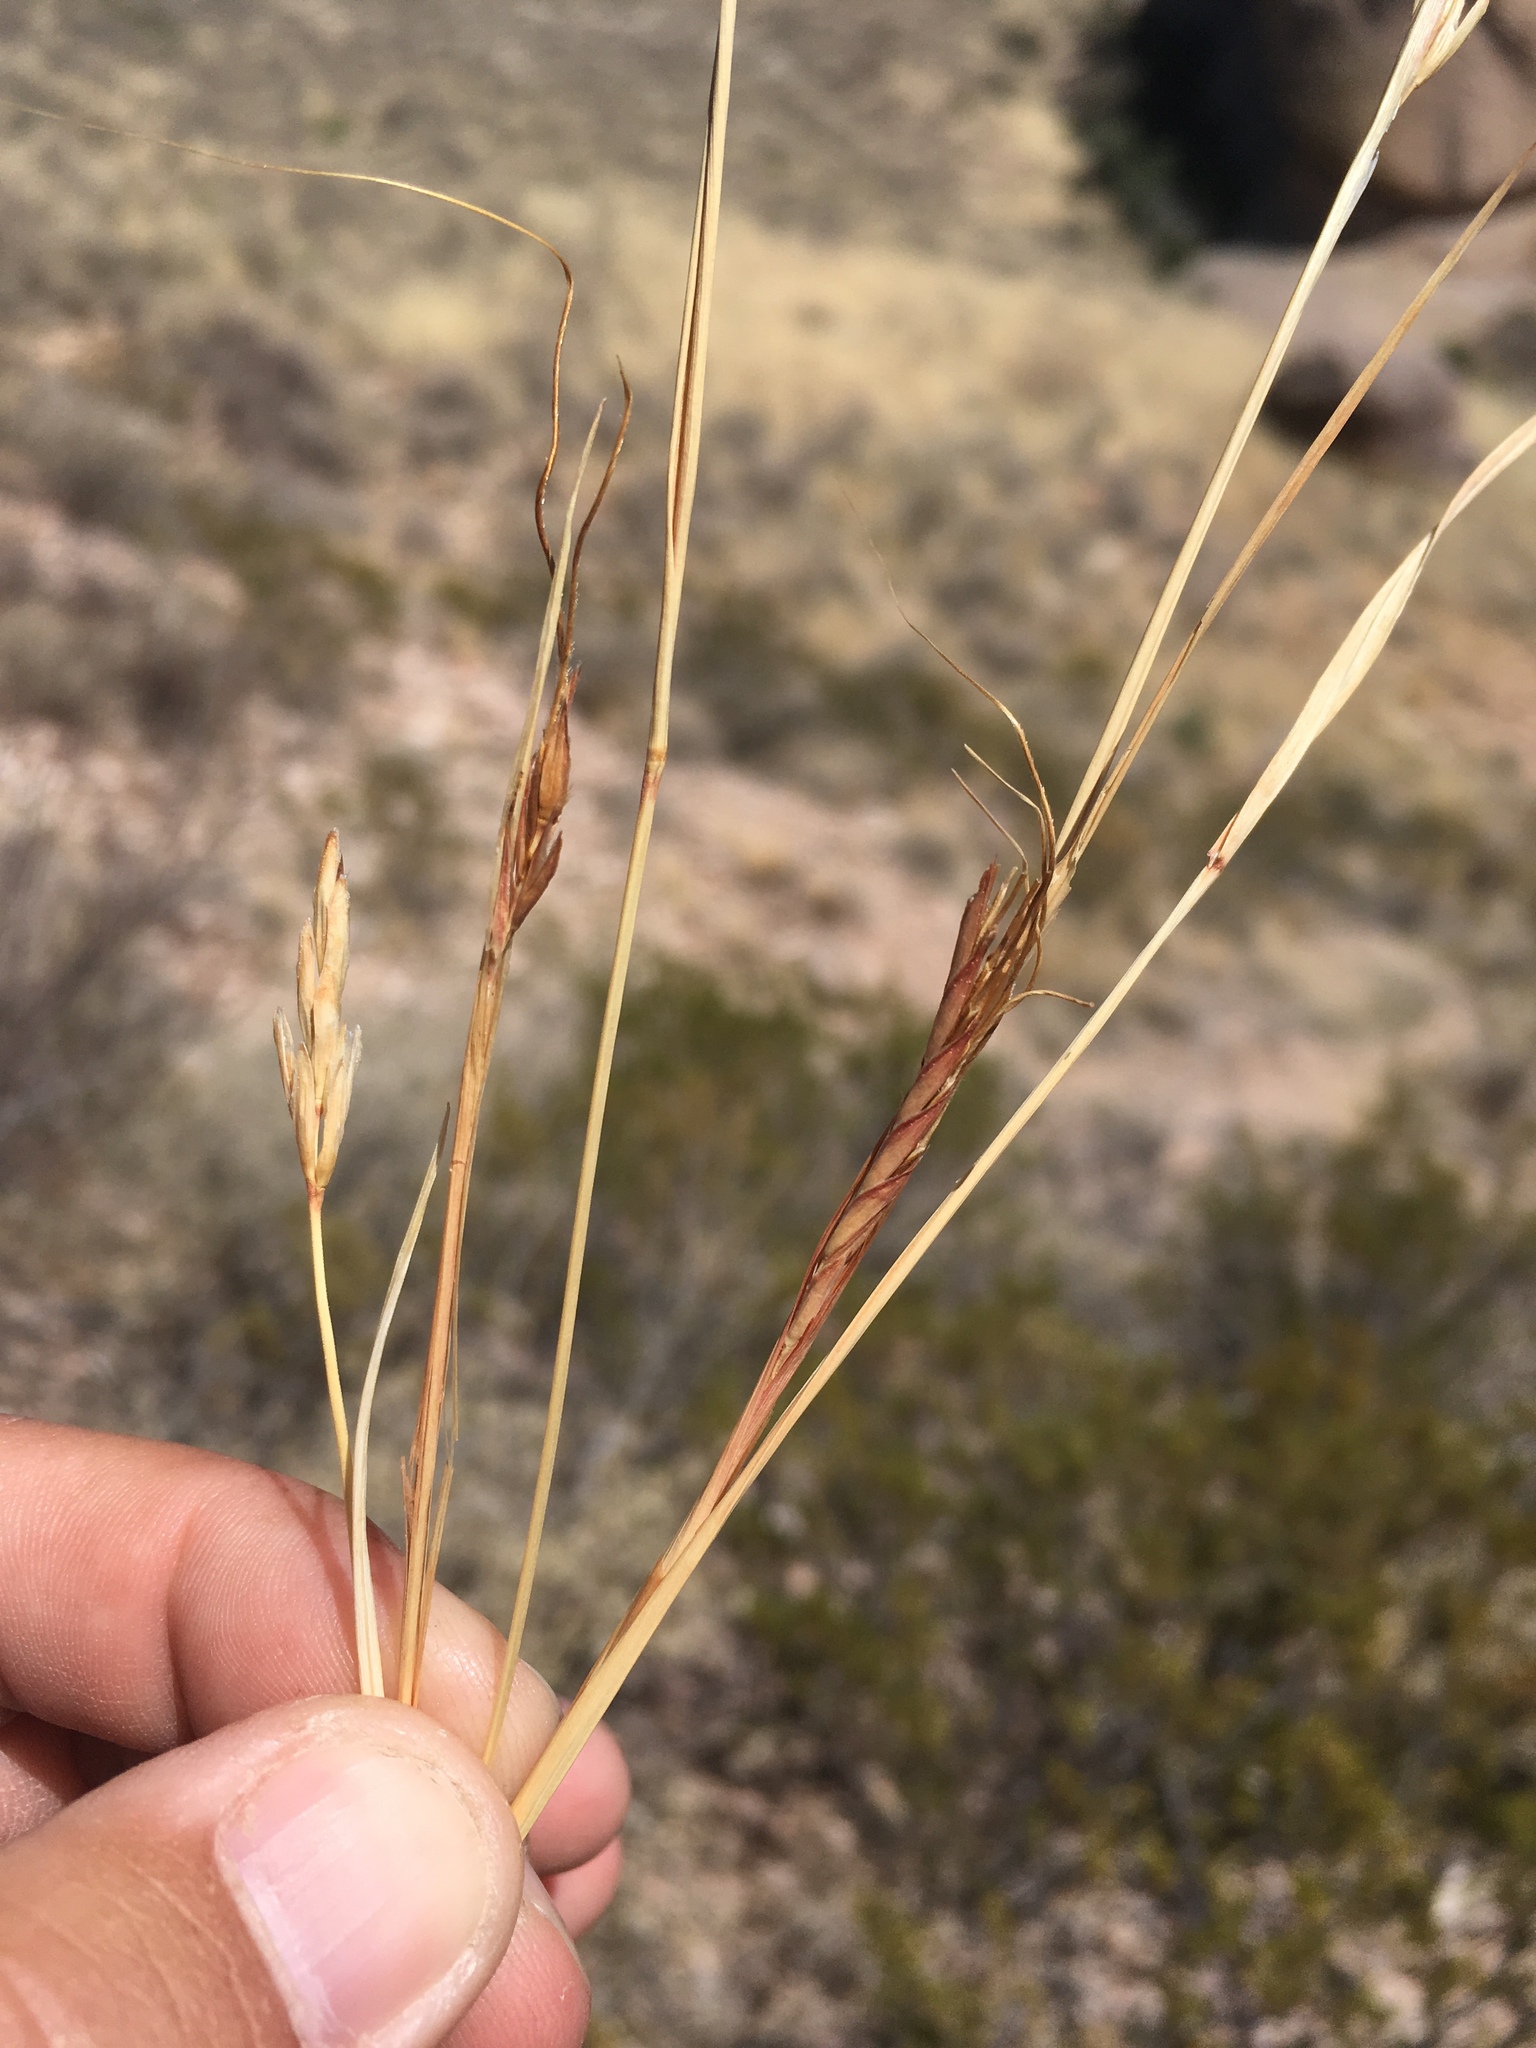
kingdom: Plantae
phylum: Tracheophyta
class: Liliopsida
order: Poales
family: Poaceae
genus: Heteropogon
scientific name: Heteropogon contortus
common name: Tanglehead
